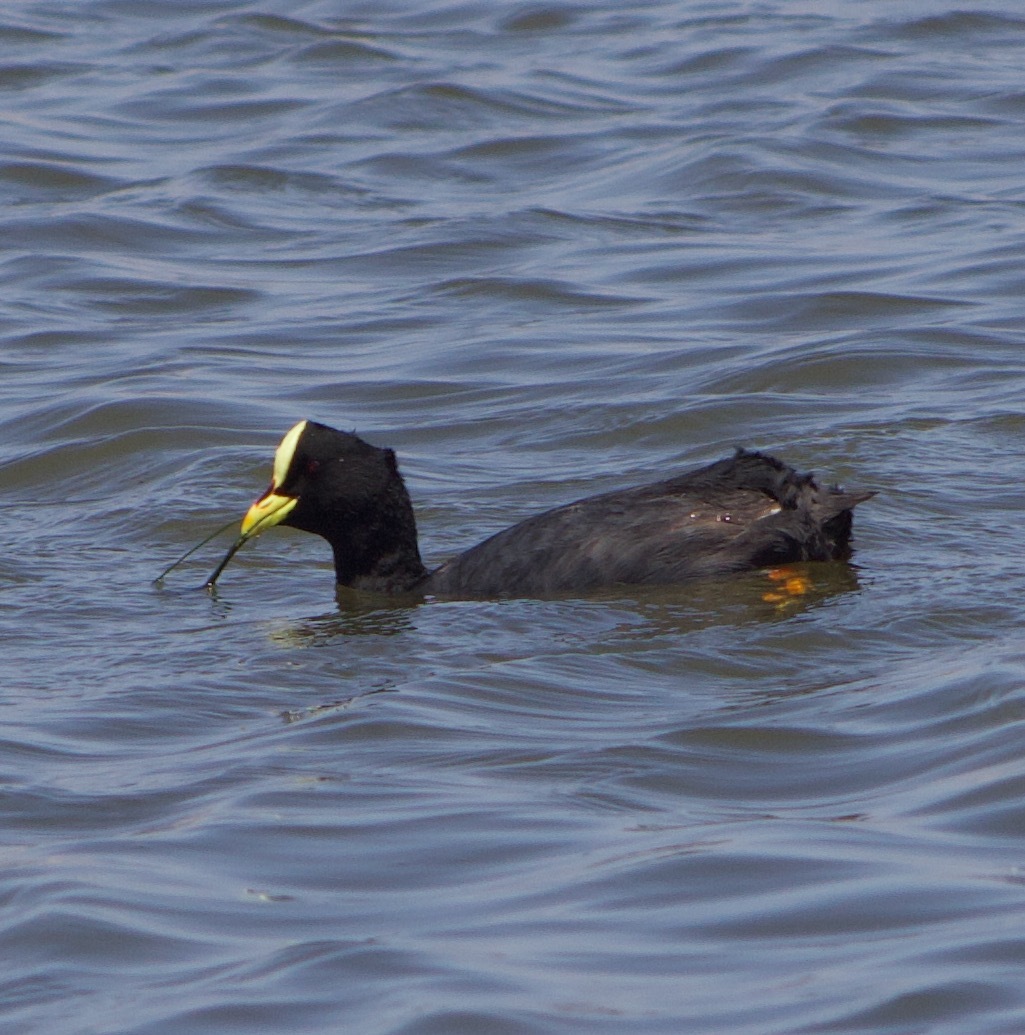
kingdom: Animalia
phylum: Chordata
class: Aves
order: Gruiformes
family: Rallidae
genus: Fulica
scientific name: Fulica armillata
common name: Red-gartered coot
